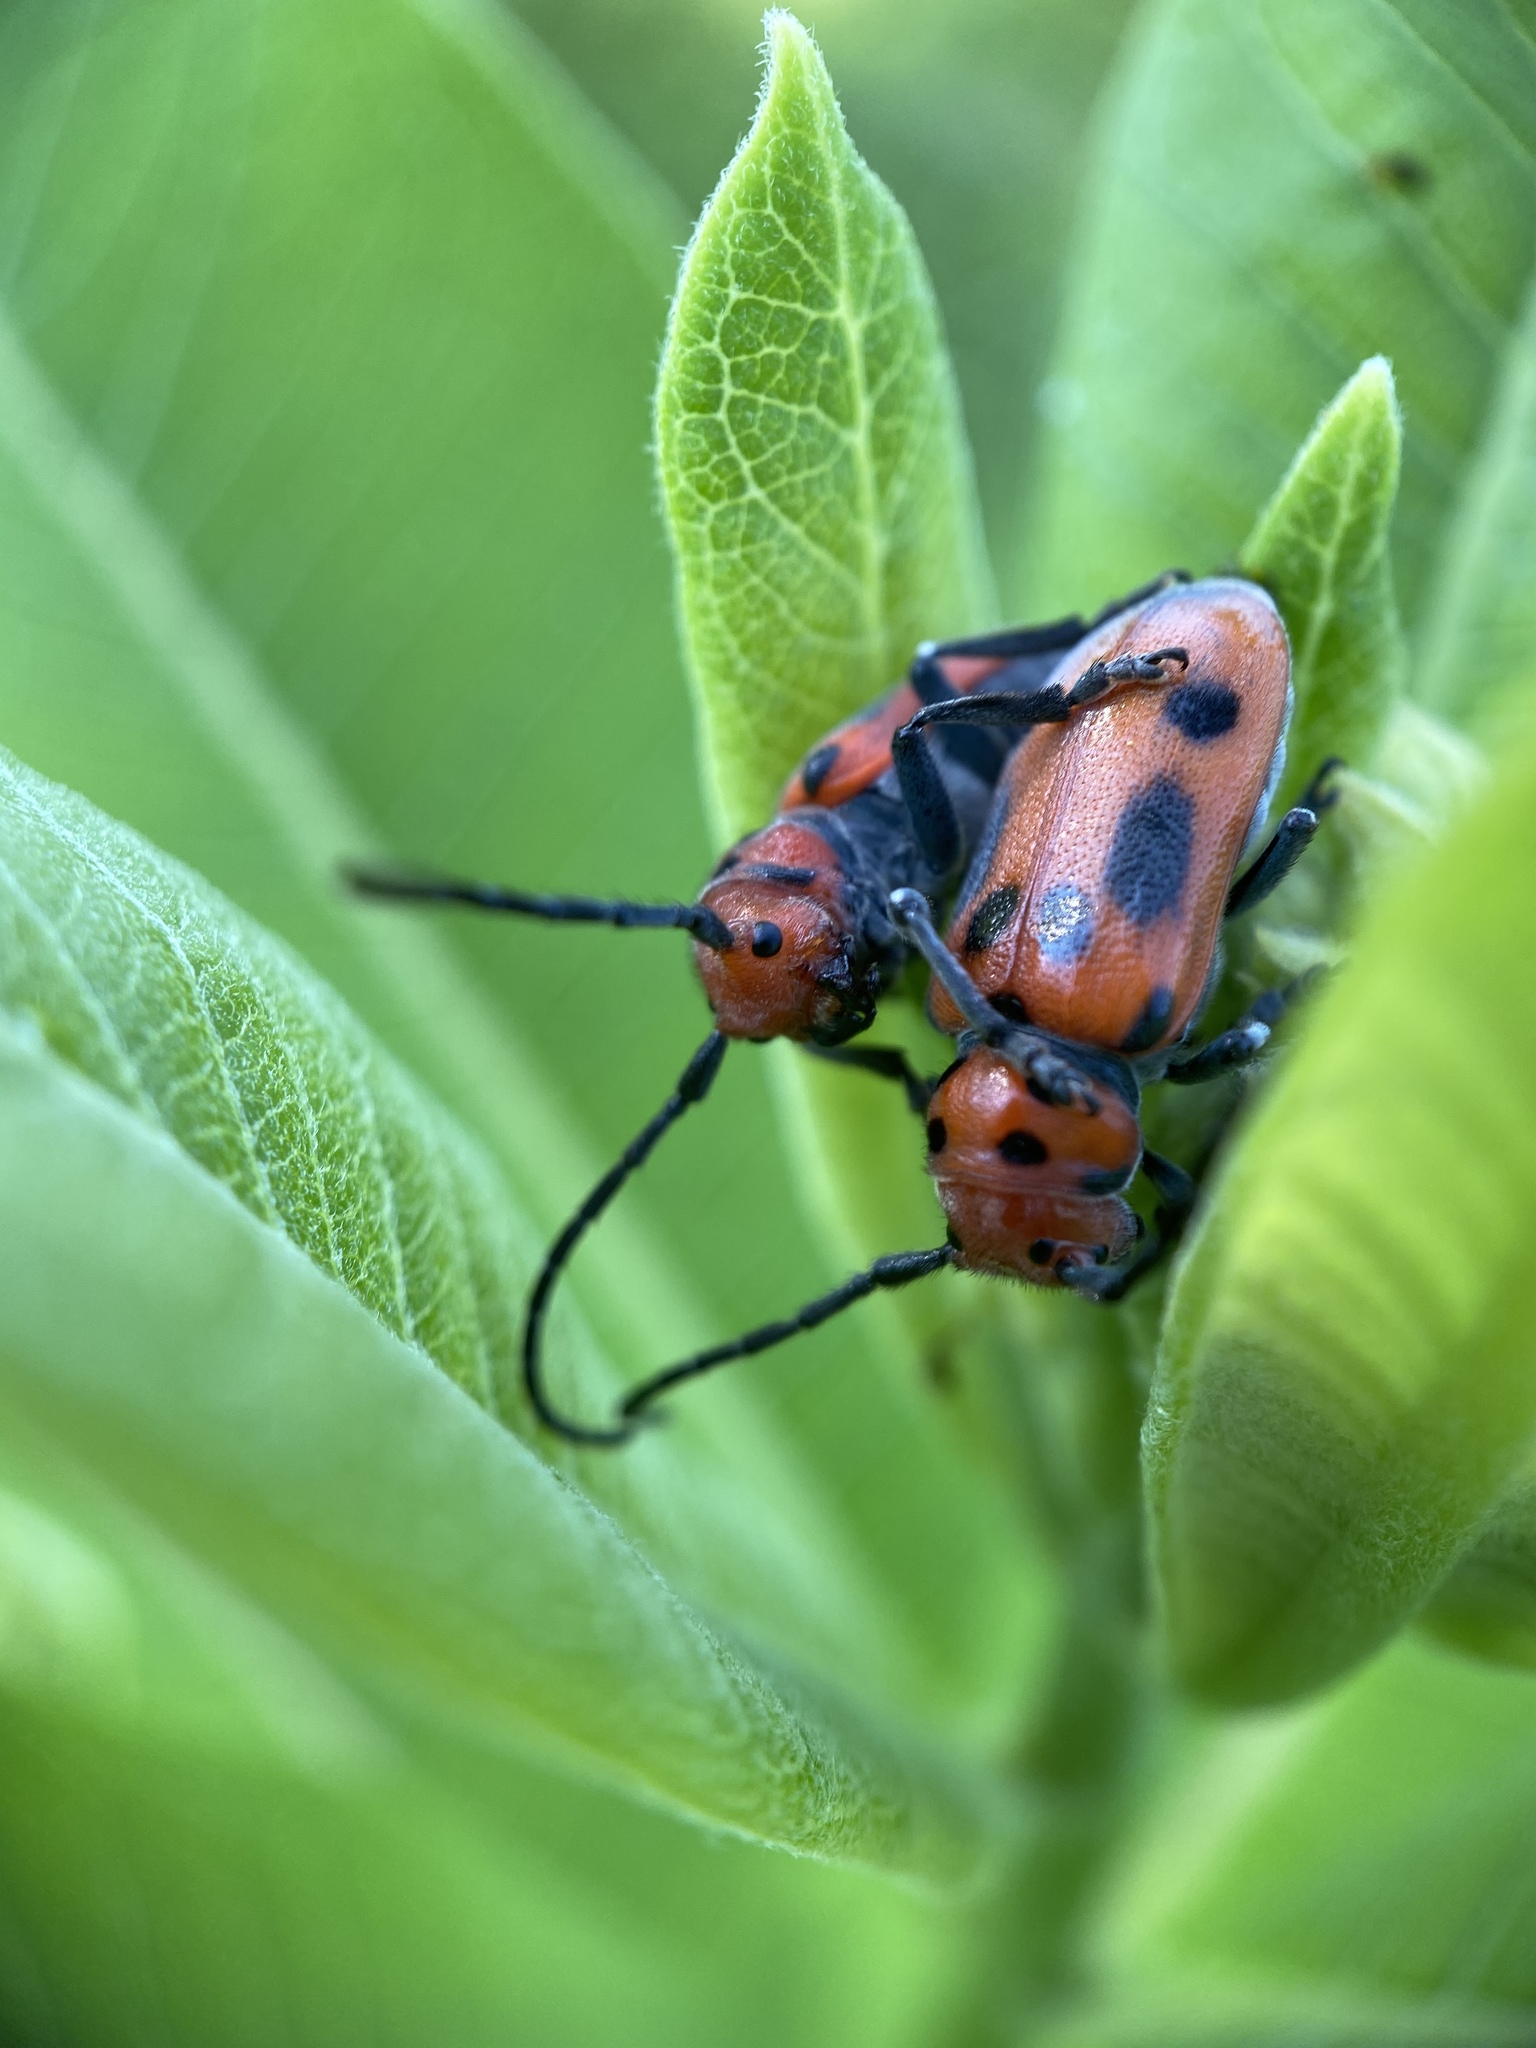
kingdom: Animalia
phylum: Arthropoda
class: Insecta
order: Coleoptera
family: Cerambycidae
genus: Tetraopes
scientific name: Tetraopes tetrophthalmus
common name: Red milkweed beetle
